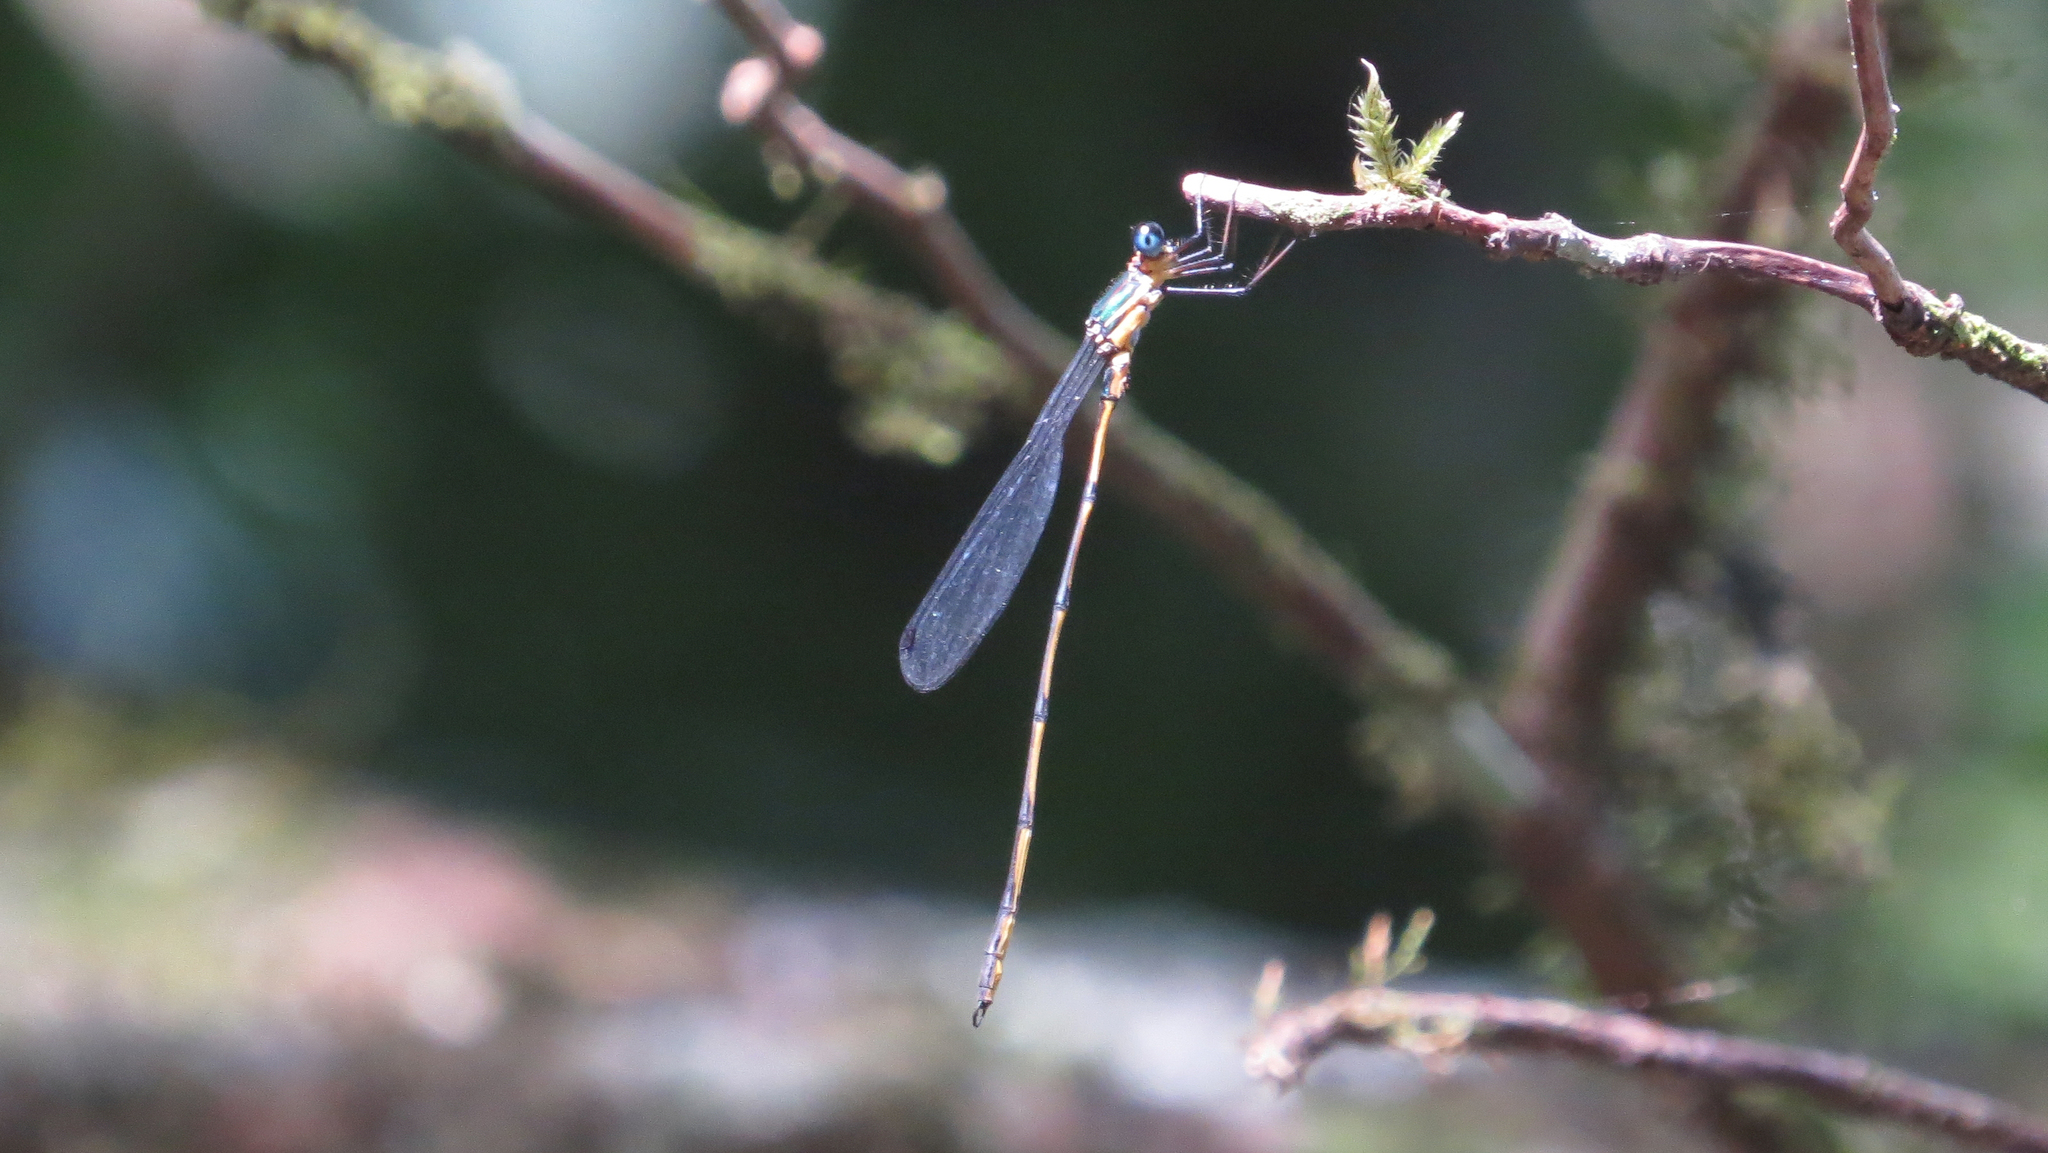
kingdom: Animalia
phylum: Arthropoda
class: Insecta
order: Odonata
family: Synlestidae
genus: Synlestes
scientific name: Synlestes selysi
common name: Forest needle
